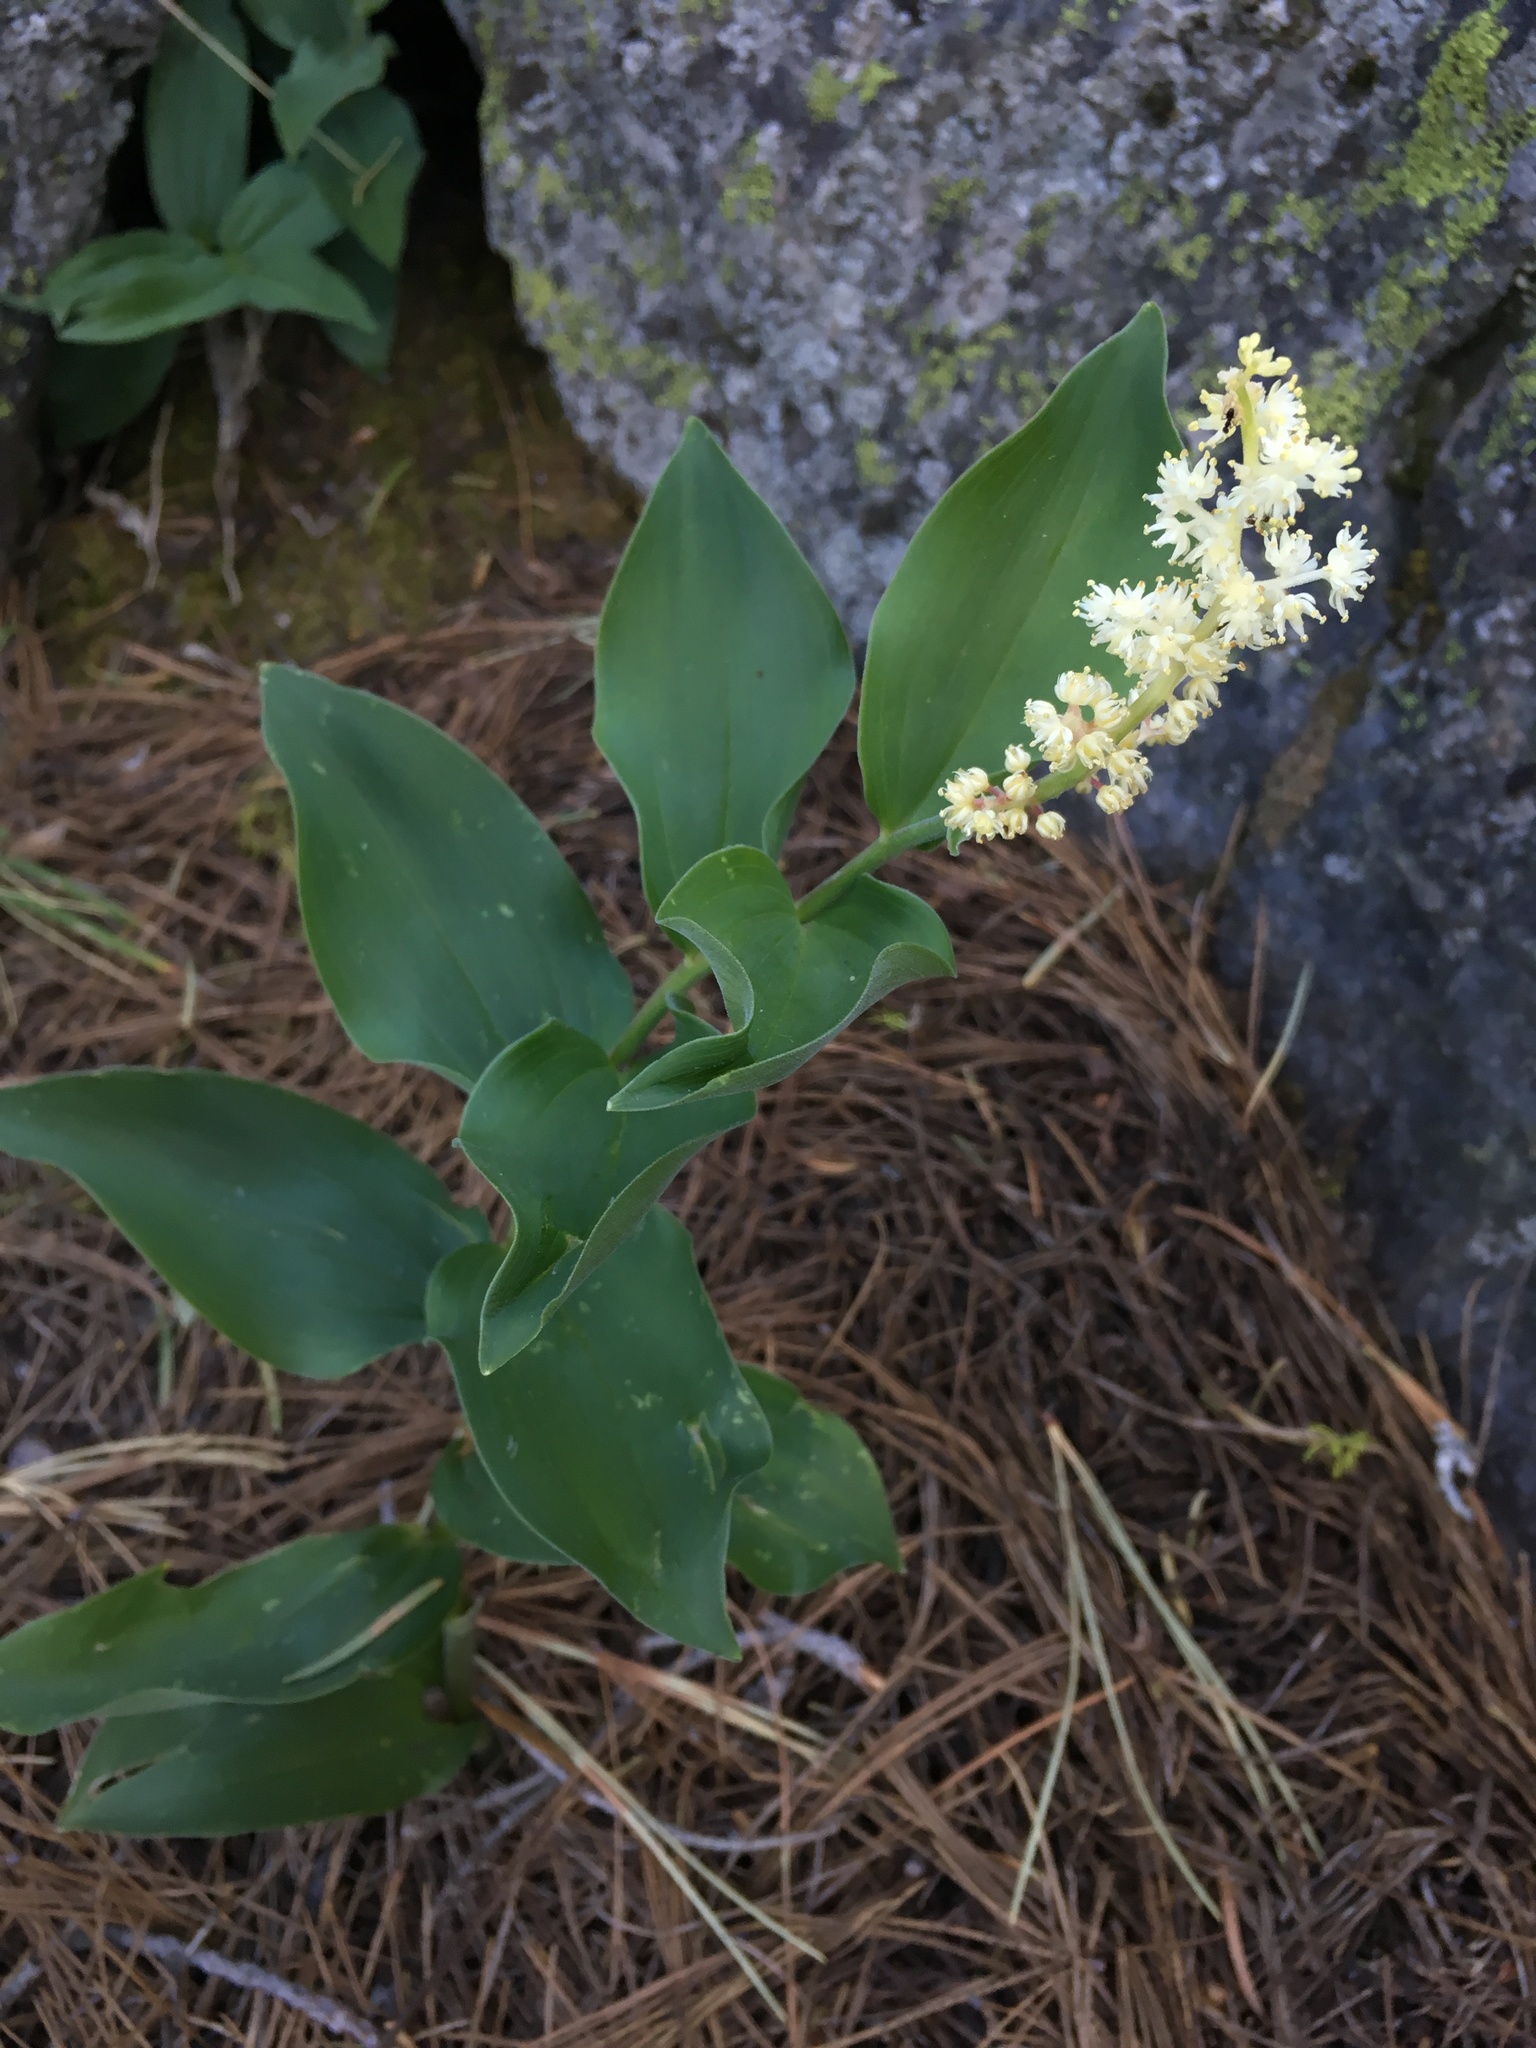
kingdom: Plantae
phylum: Tracheophyta
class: Liliopsida
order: Asparagales
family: Asparagaceae
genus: Maianthemum
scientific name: Maianthemum racemosum
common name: False spikenard
